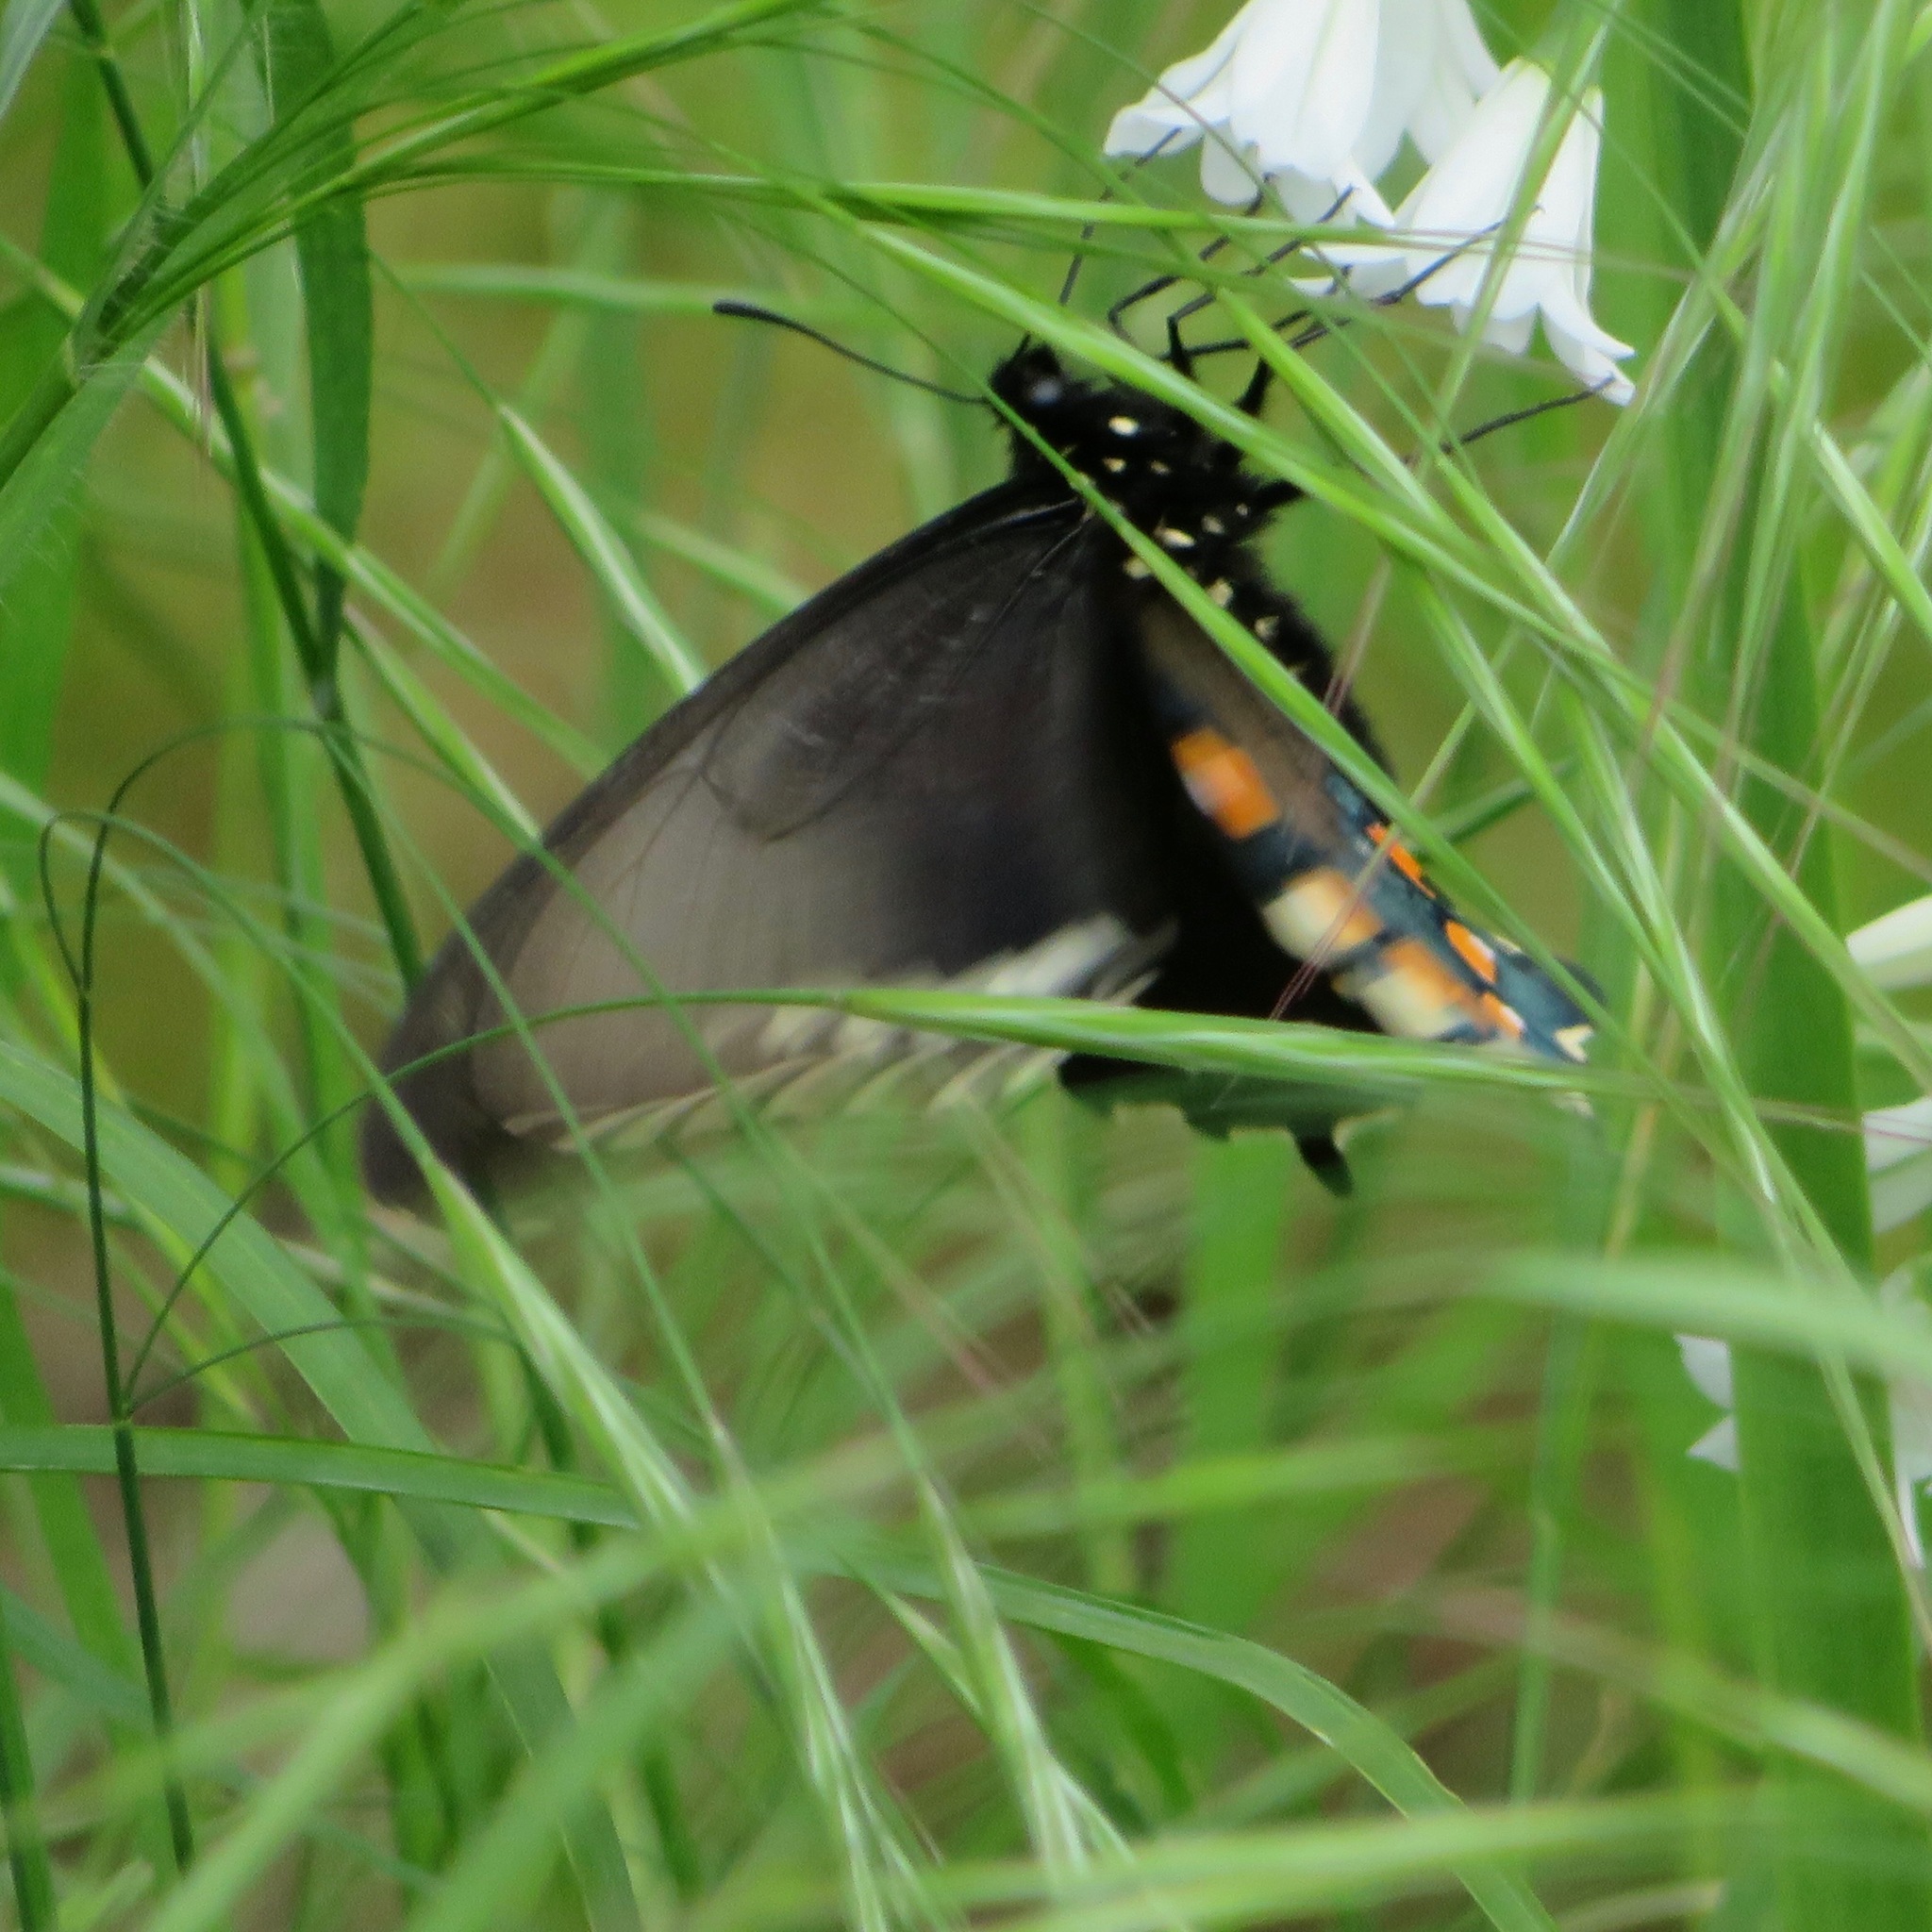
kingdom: Animalia
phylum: Arthropoda
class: Insecta
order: Lepidoptera
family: Papilionidae
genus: Battus
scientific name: Battus philenor
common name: Pipevine swallowtail
